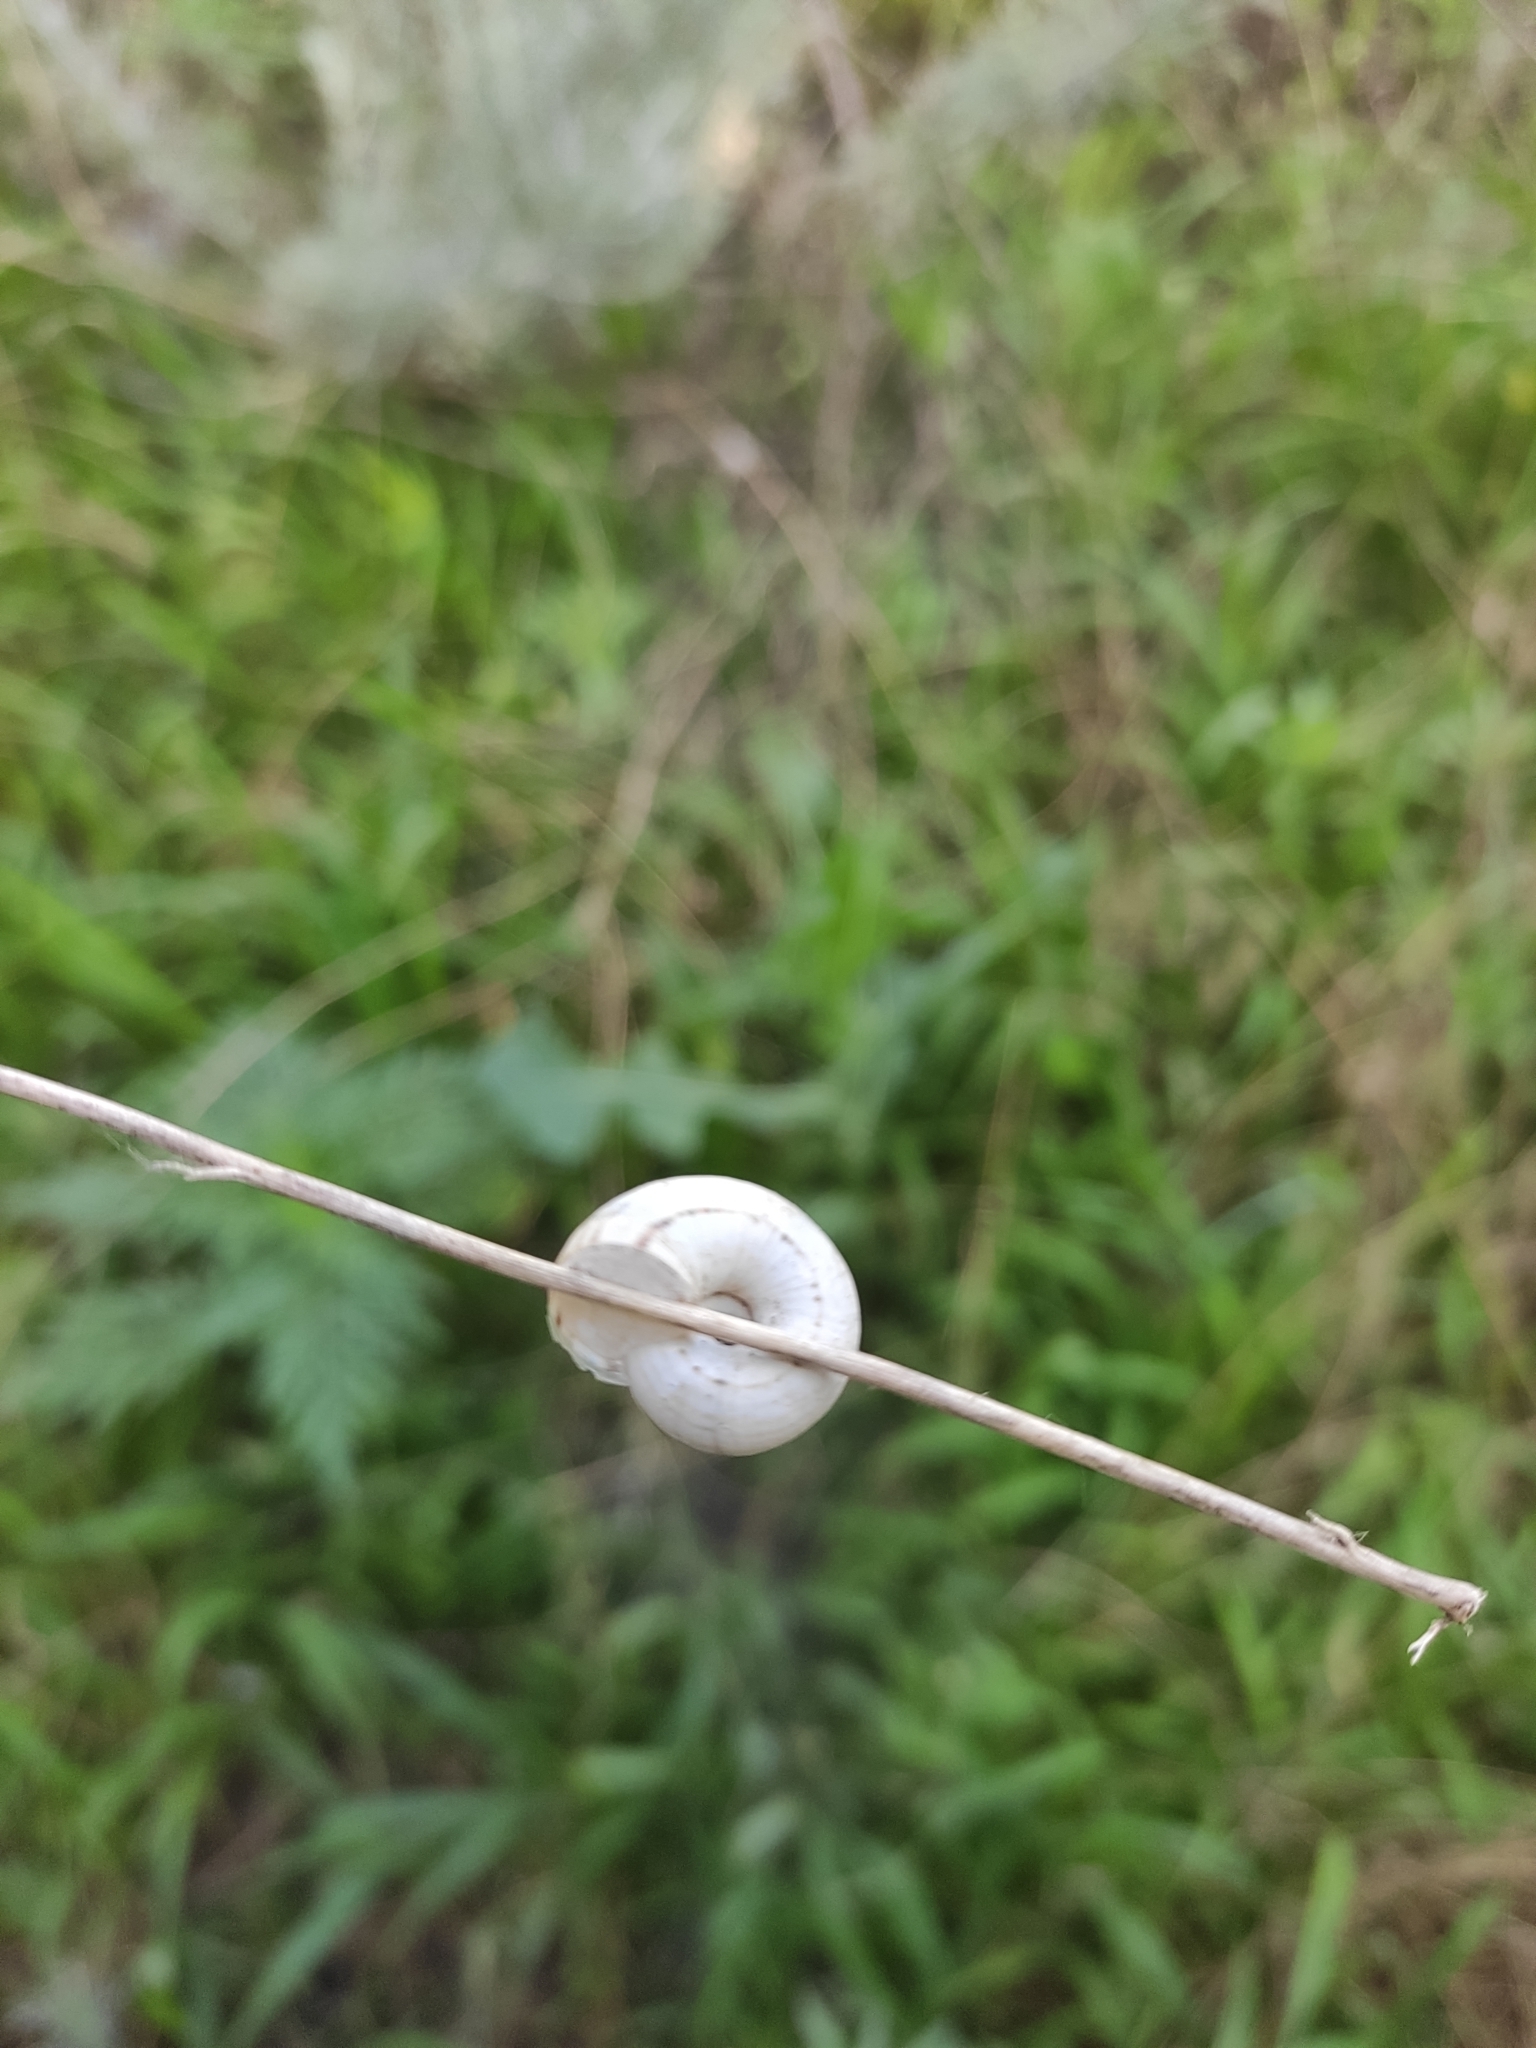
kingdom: Animalia
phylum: Mollusca
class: Gastropoda
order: Stylommatophora
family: Geomitridae
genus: Xeropicta
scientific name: Xeropicta derbentina
